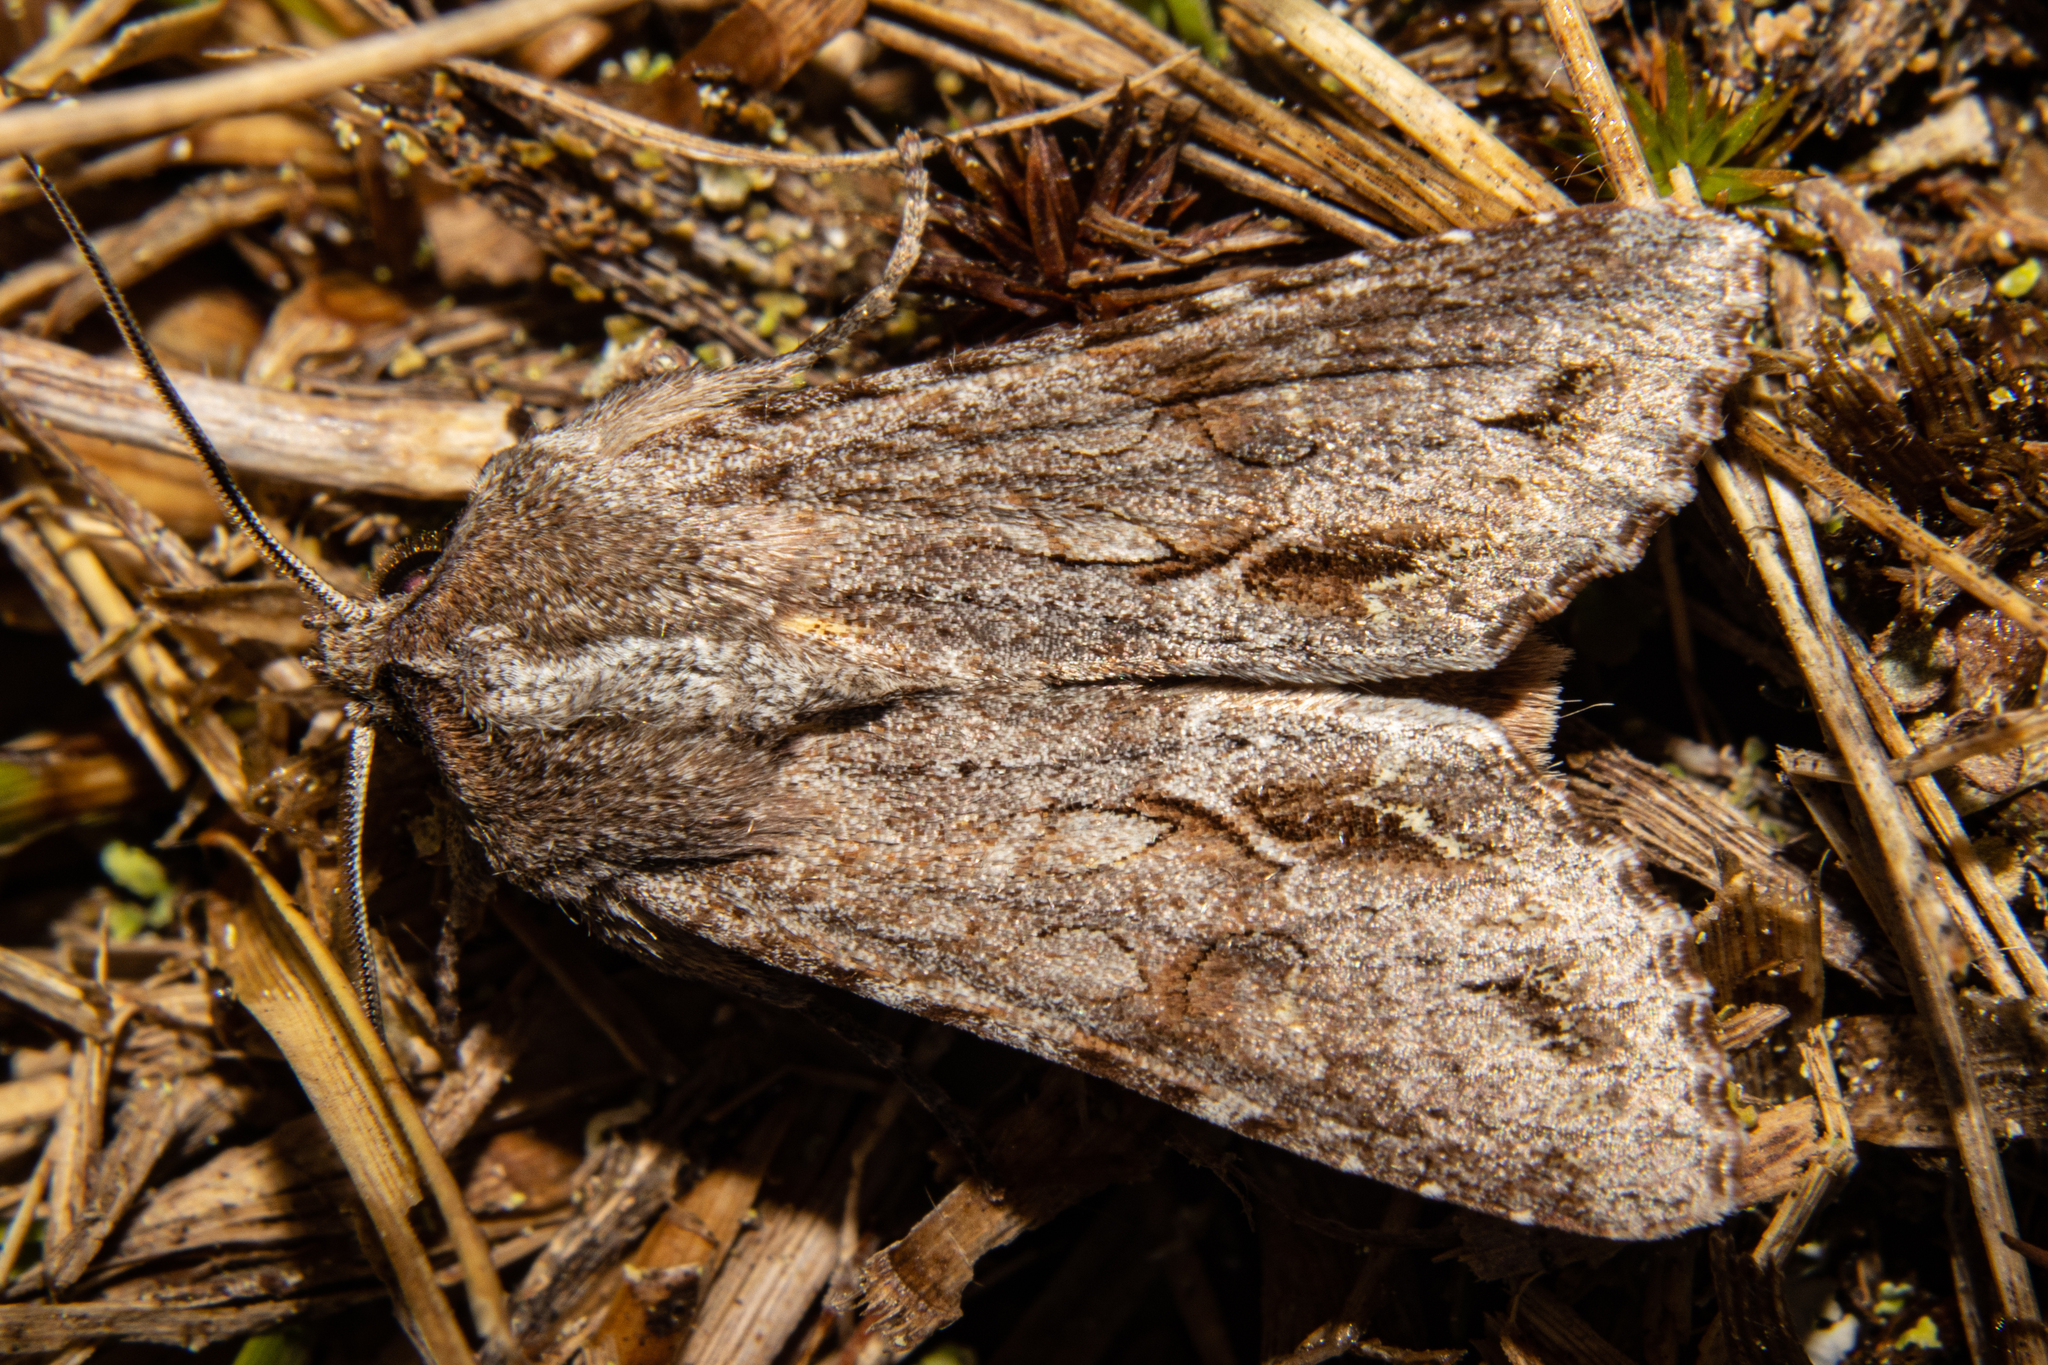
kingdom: Animalia
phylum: Arthropoda
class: Insecta
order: Lepidoptera
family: Noctuidae
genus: Ichneutica
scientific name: Ichneutica
